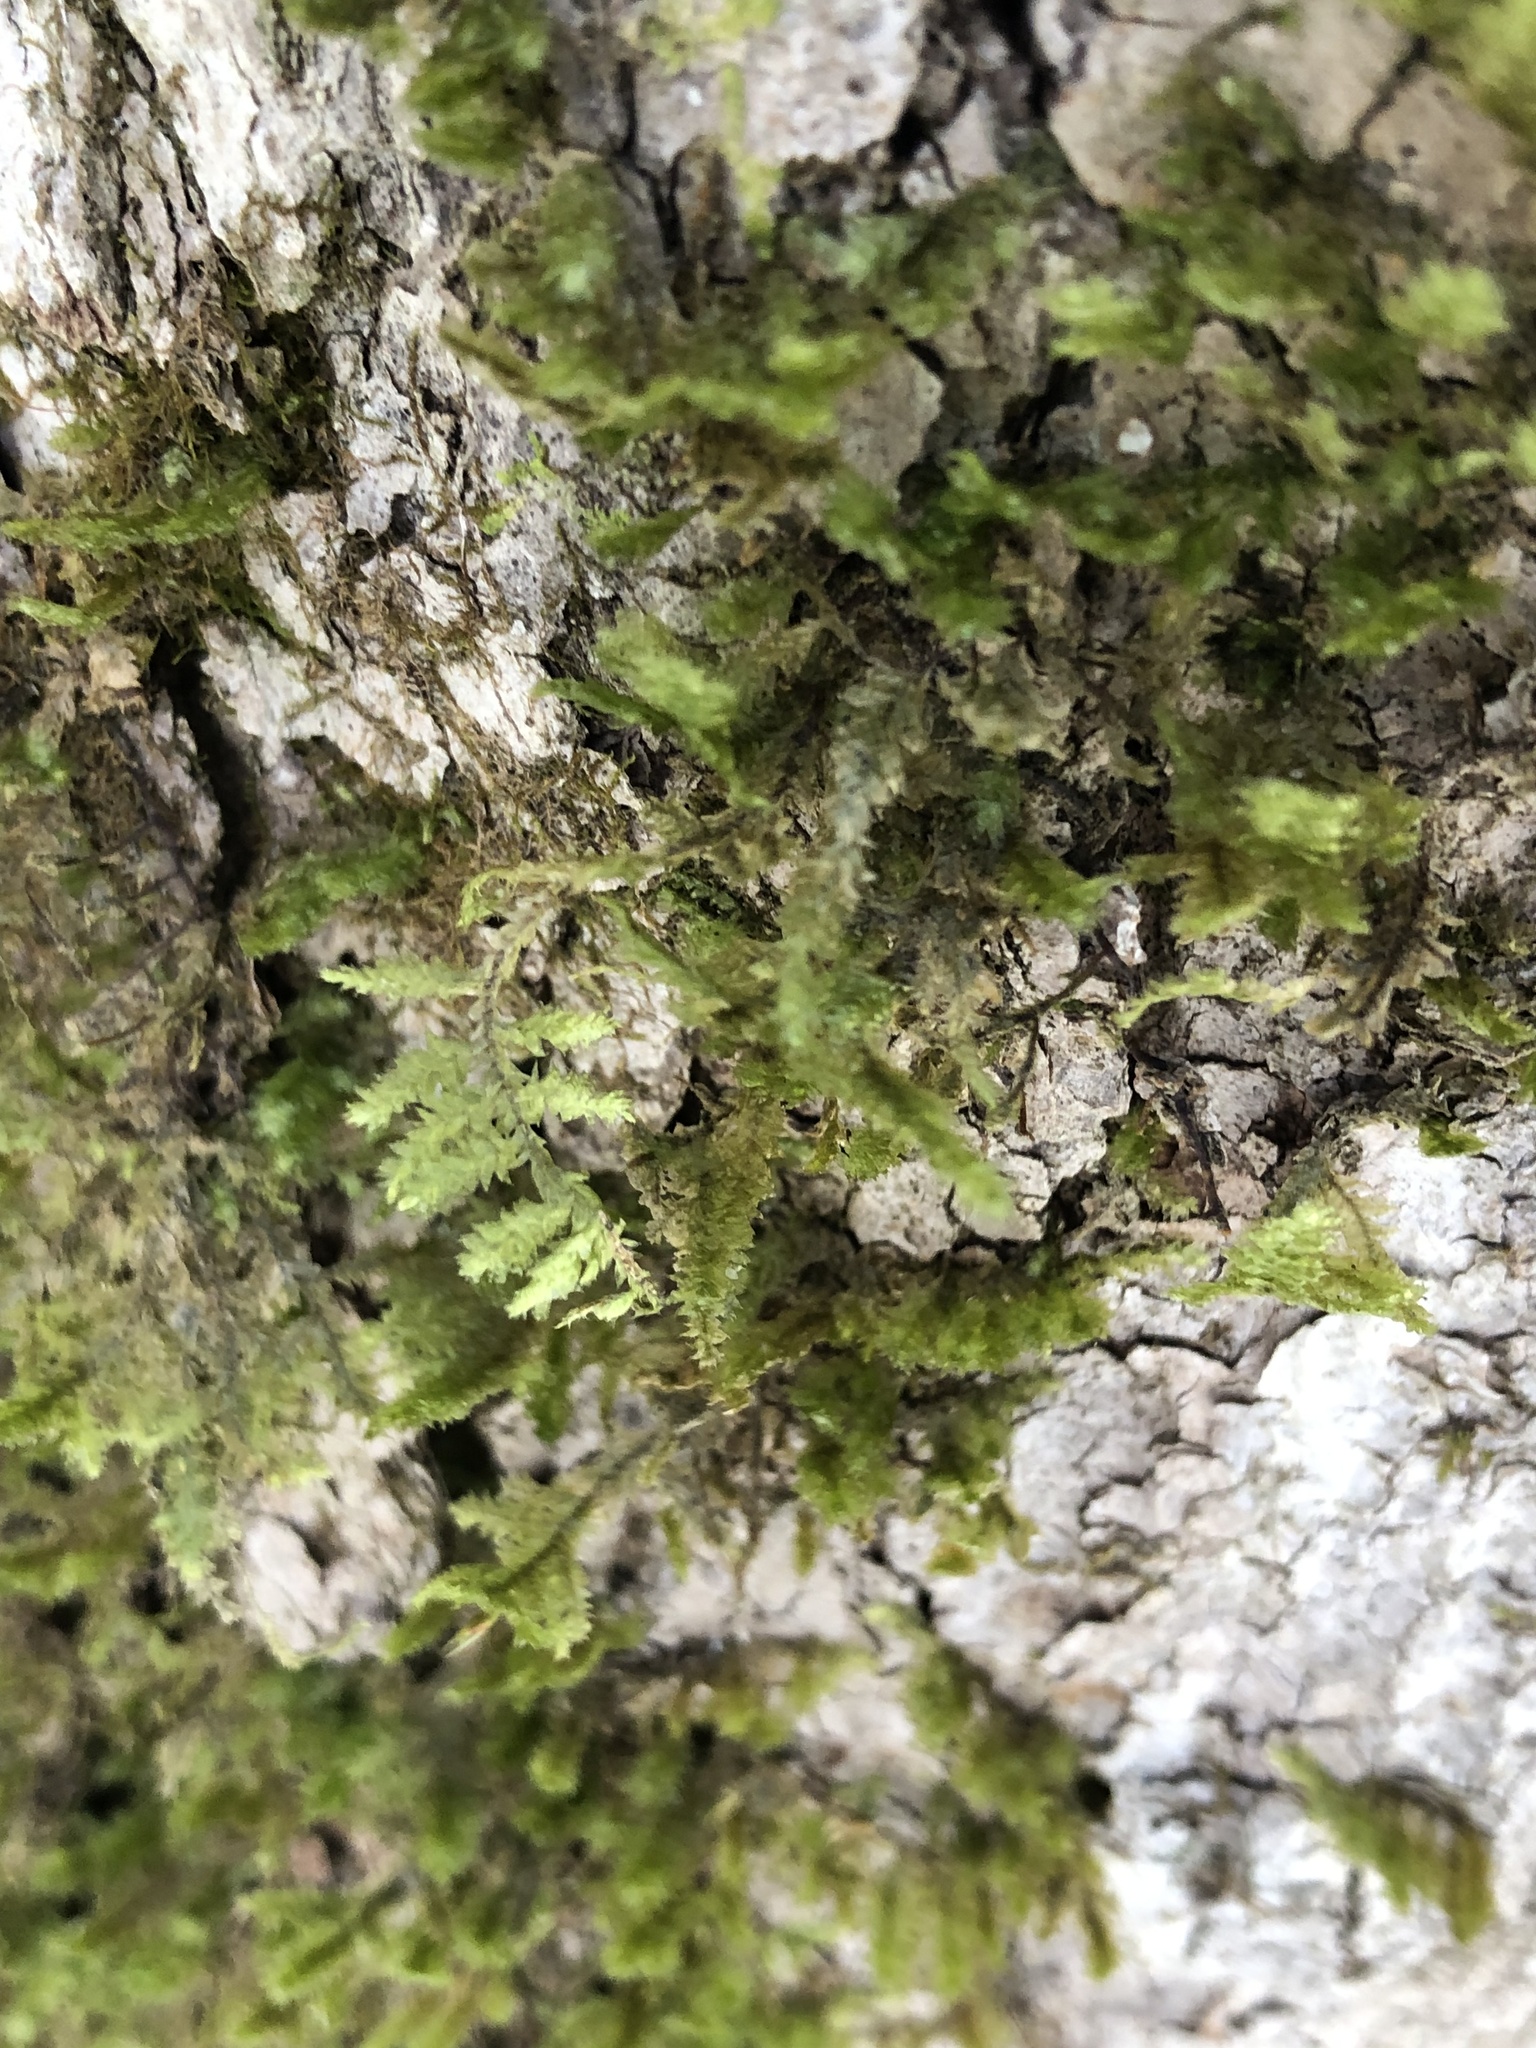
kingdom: Plantae
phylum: Bryophyta
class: Bryopsida
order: Hypnales
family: Neckeraceae
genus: Neckera
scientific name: Neckera pennata
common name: Feathery neckera
